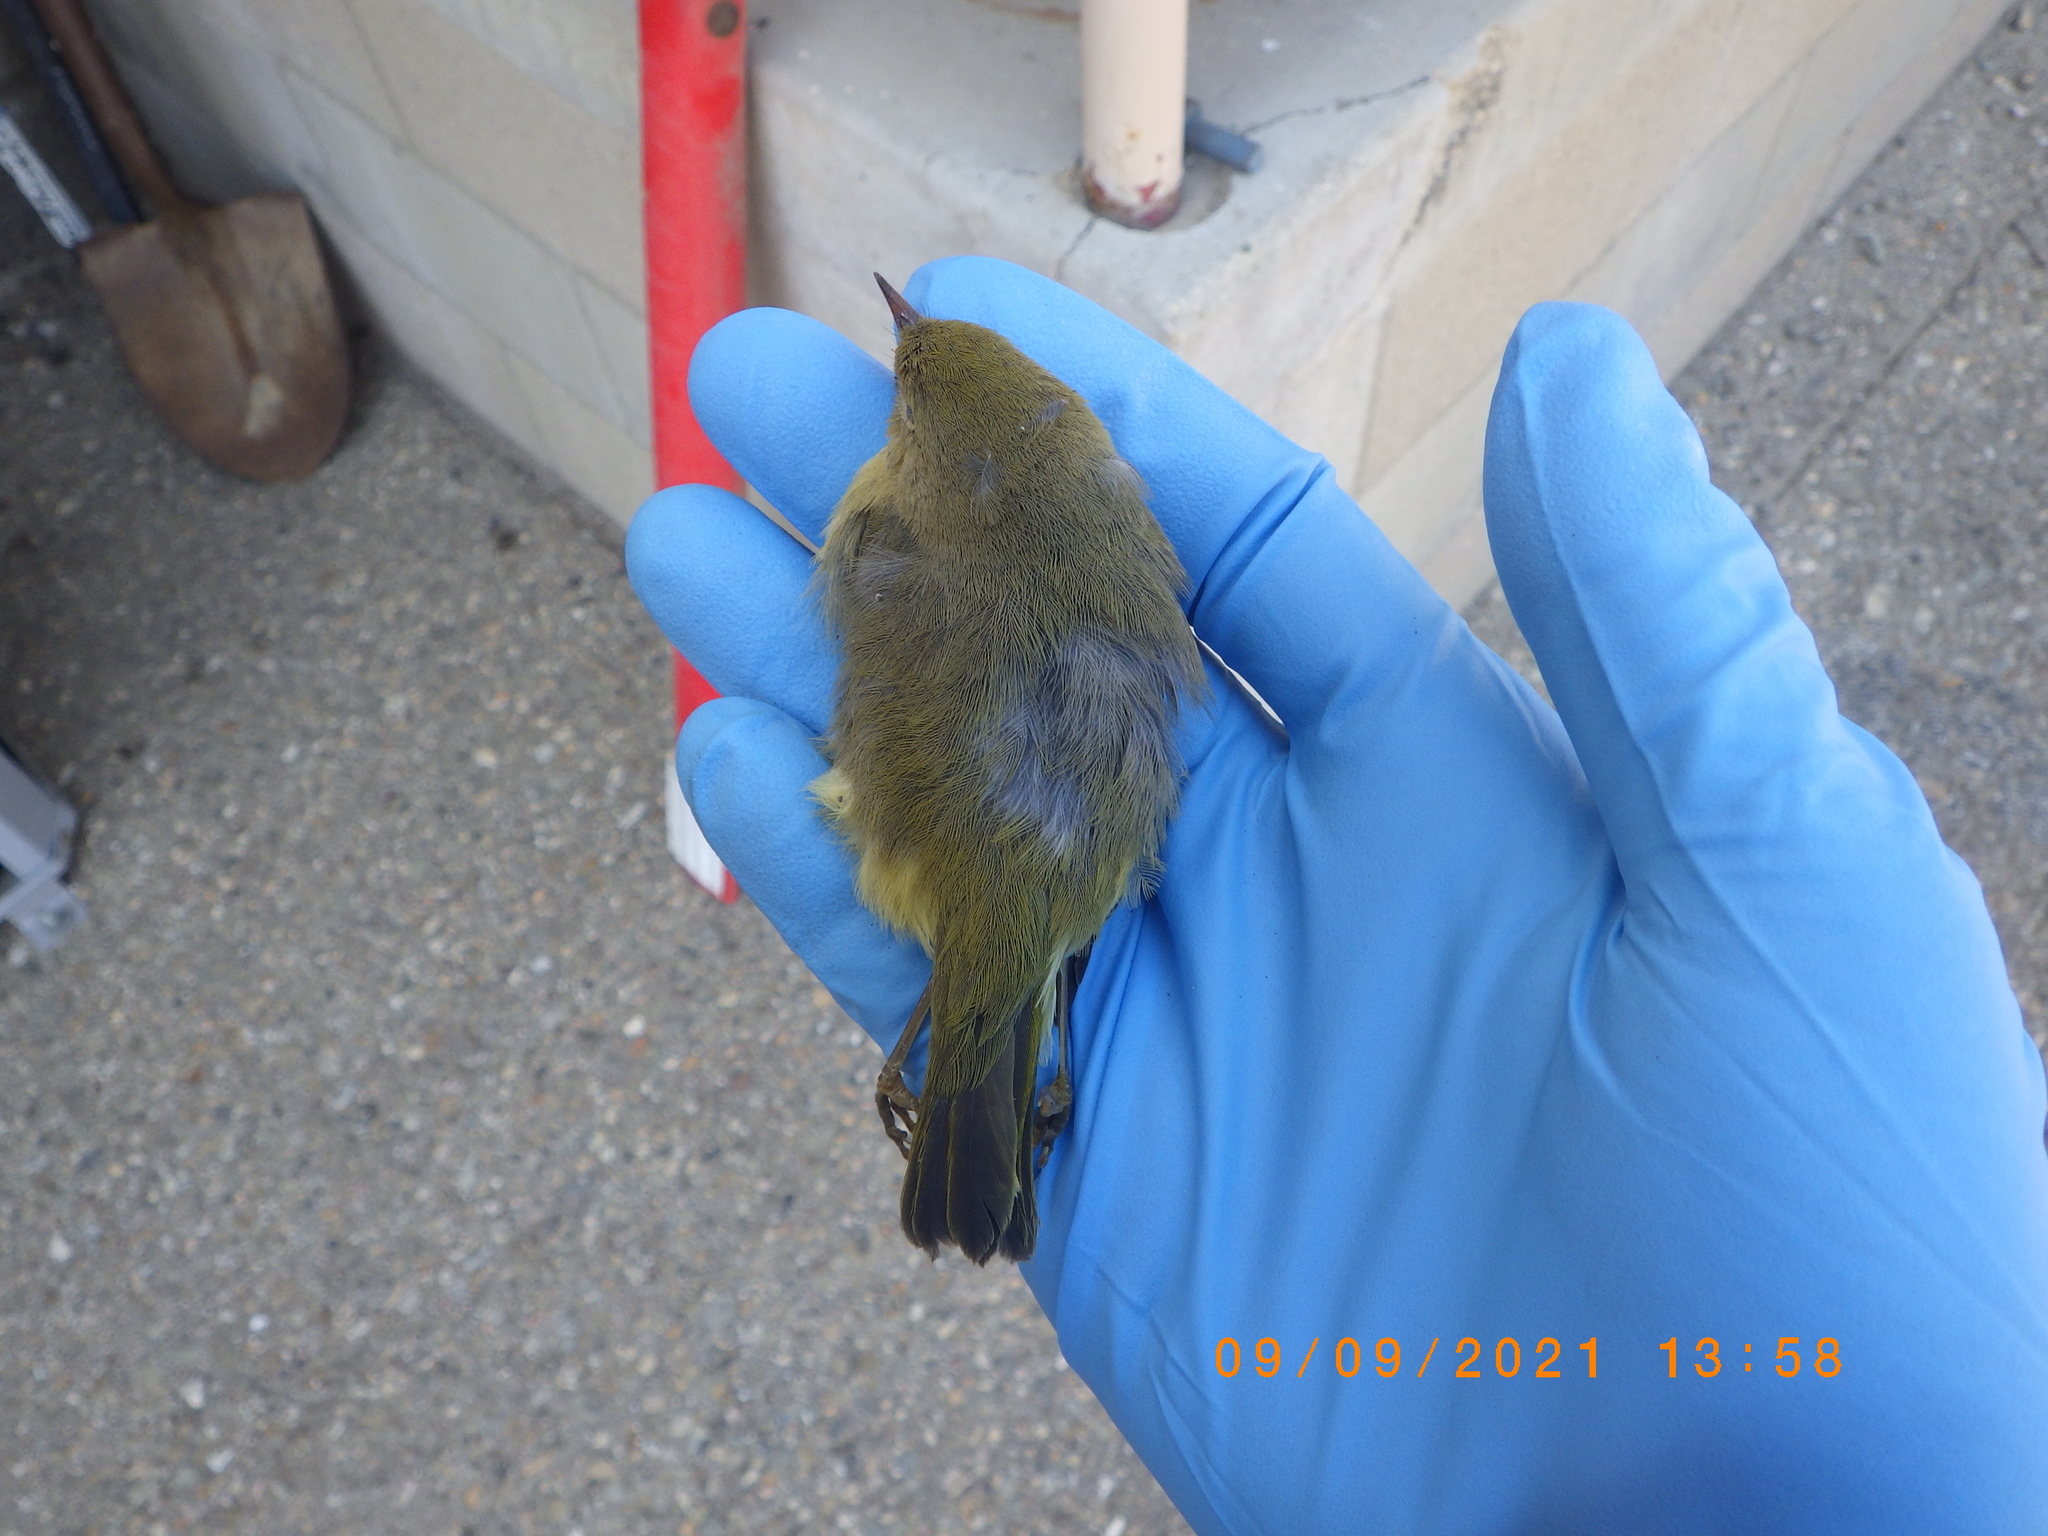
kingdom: Animalia
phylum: Chordata
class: Aves
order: Passeriformes
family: Parulidae
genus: Setophaga
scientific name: Setophaga petechia
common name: Yellow warbler
